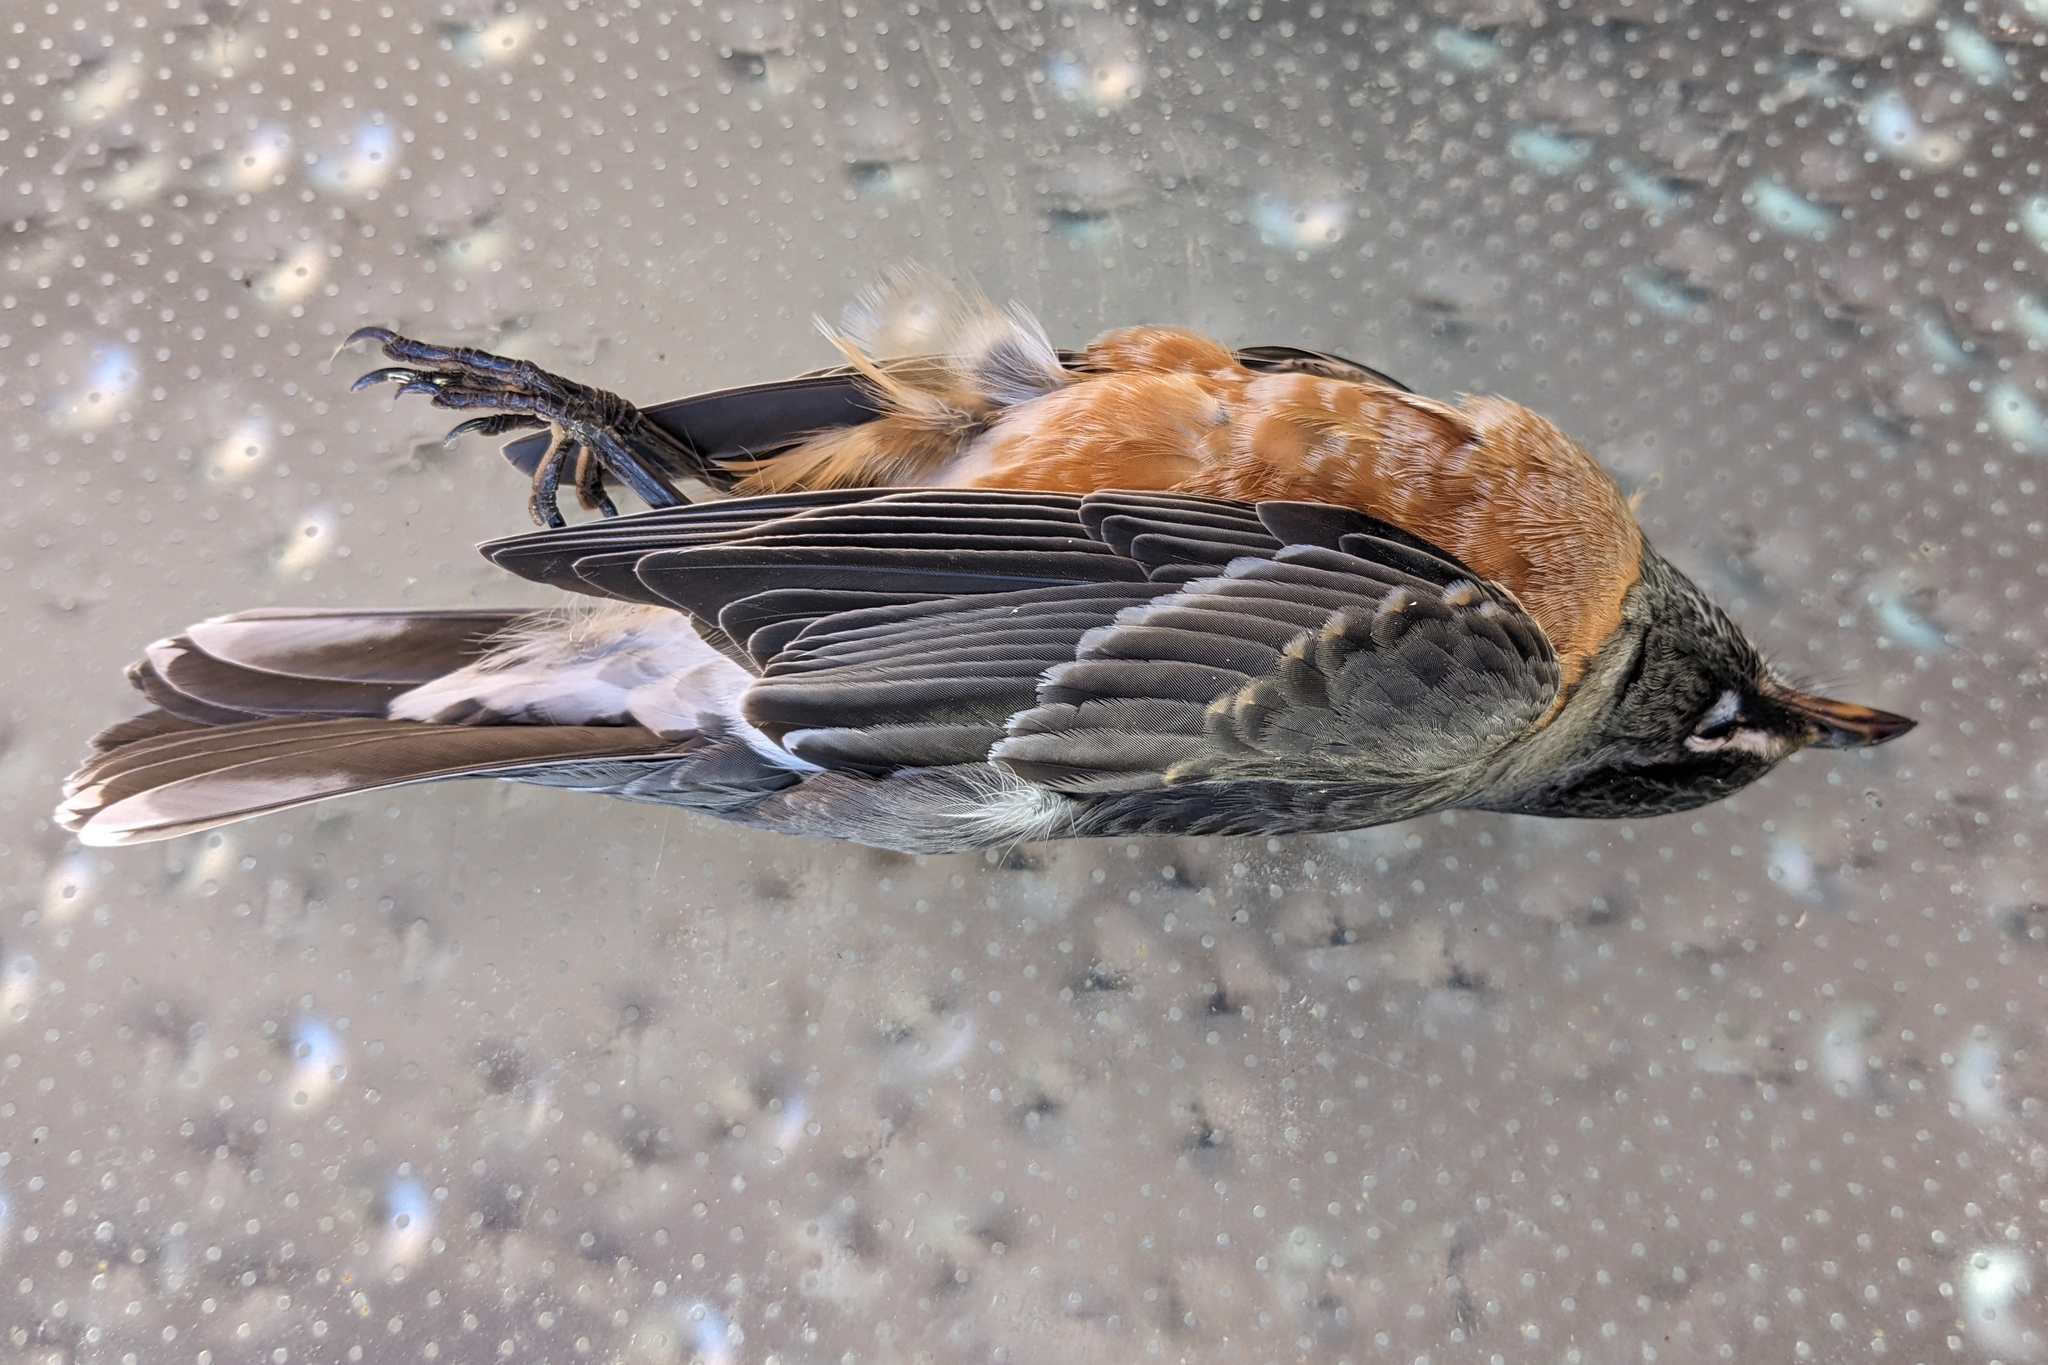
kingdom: Animalia
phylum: Chordata
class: Aves
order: Passeriformes
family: Turdidae
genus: Turdus
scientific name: Turdus migratorius
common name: American robin
